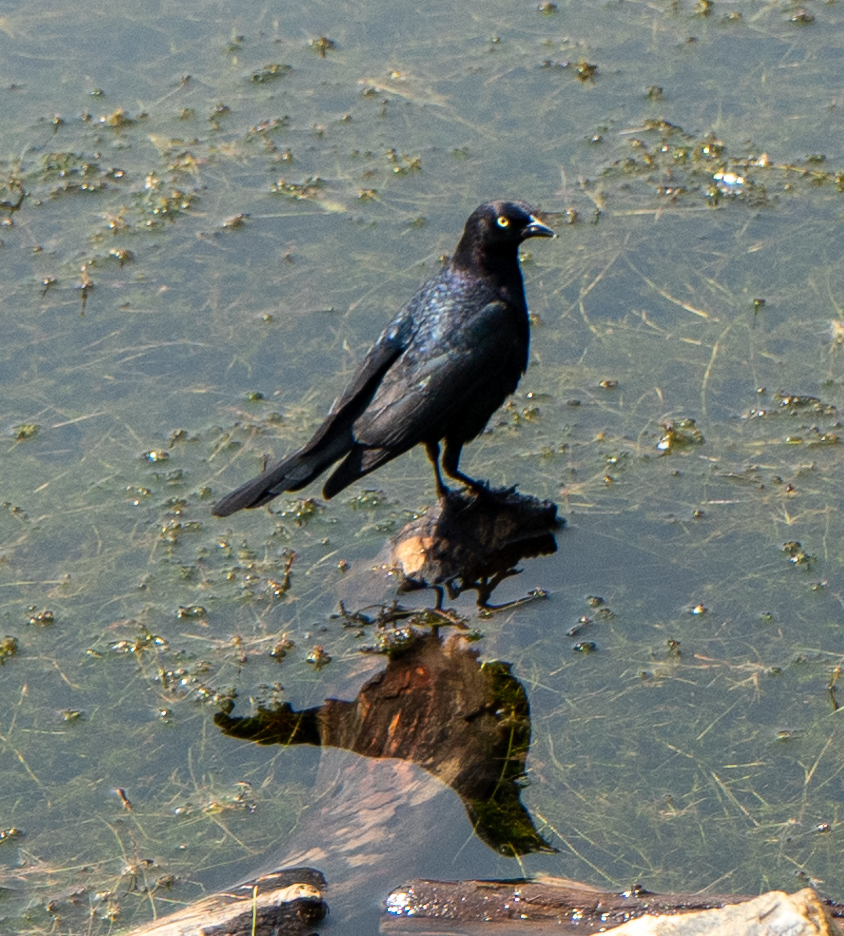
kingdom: Animalia
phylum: Chordata
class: Aves
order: Passeriformes
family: Icteridae
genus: Euphagus
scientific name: Euphagus cyanocephalus
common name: Brewer's blackbird
